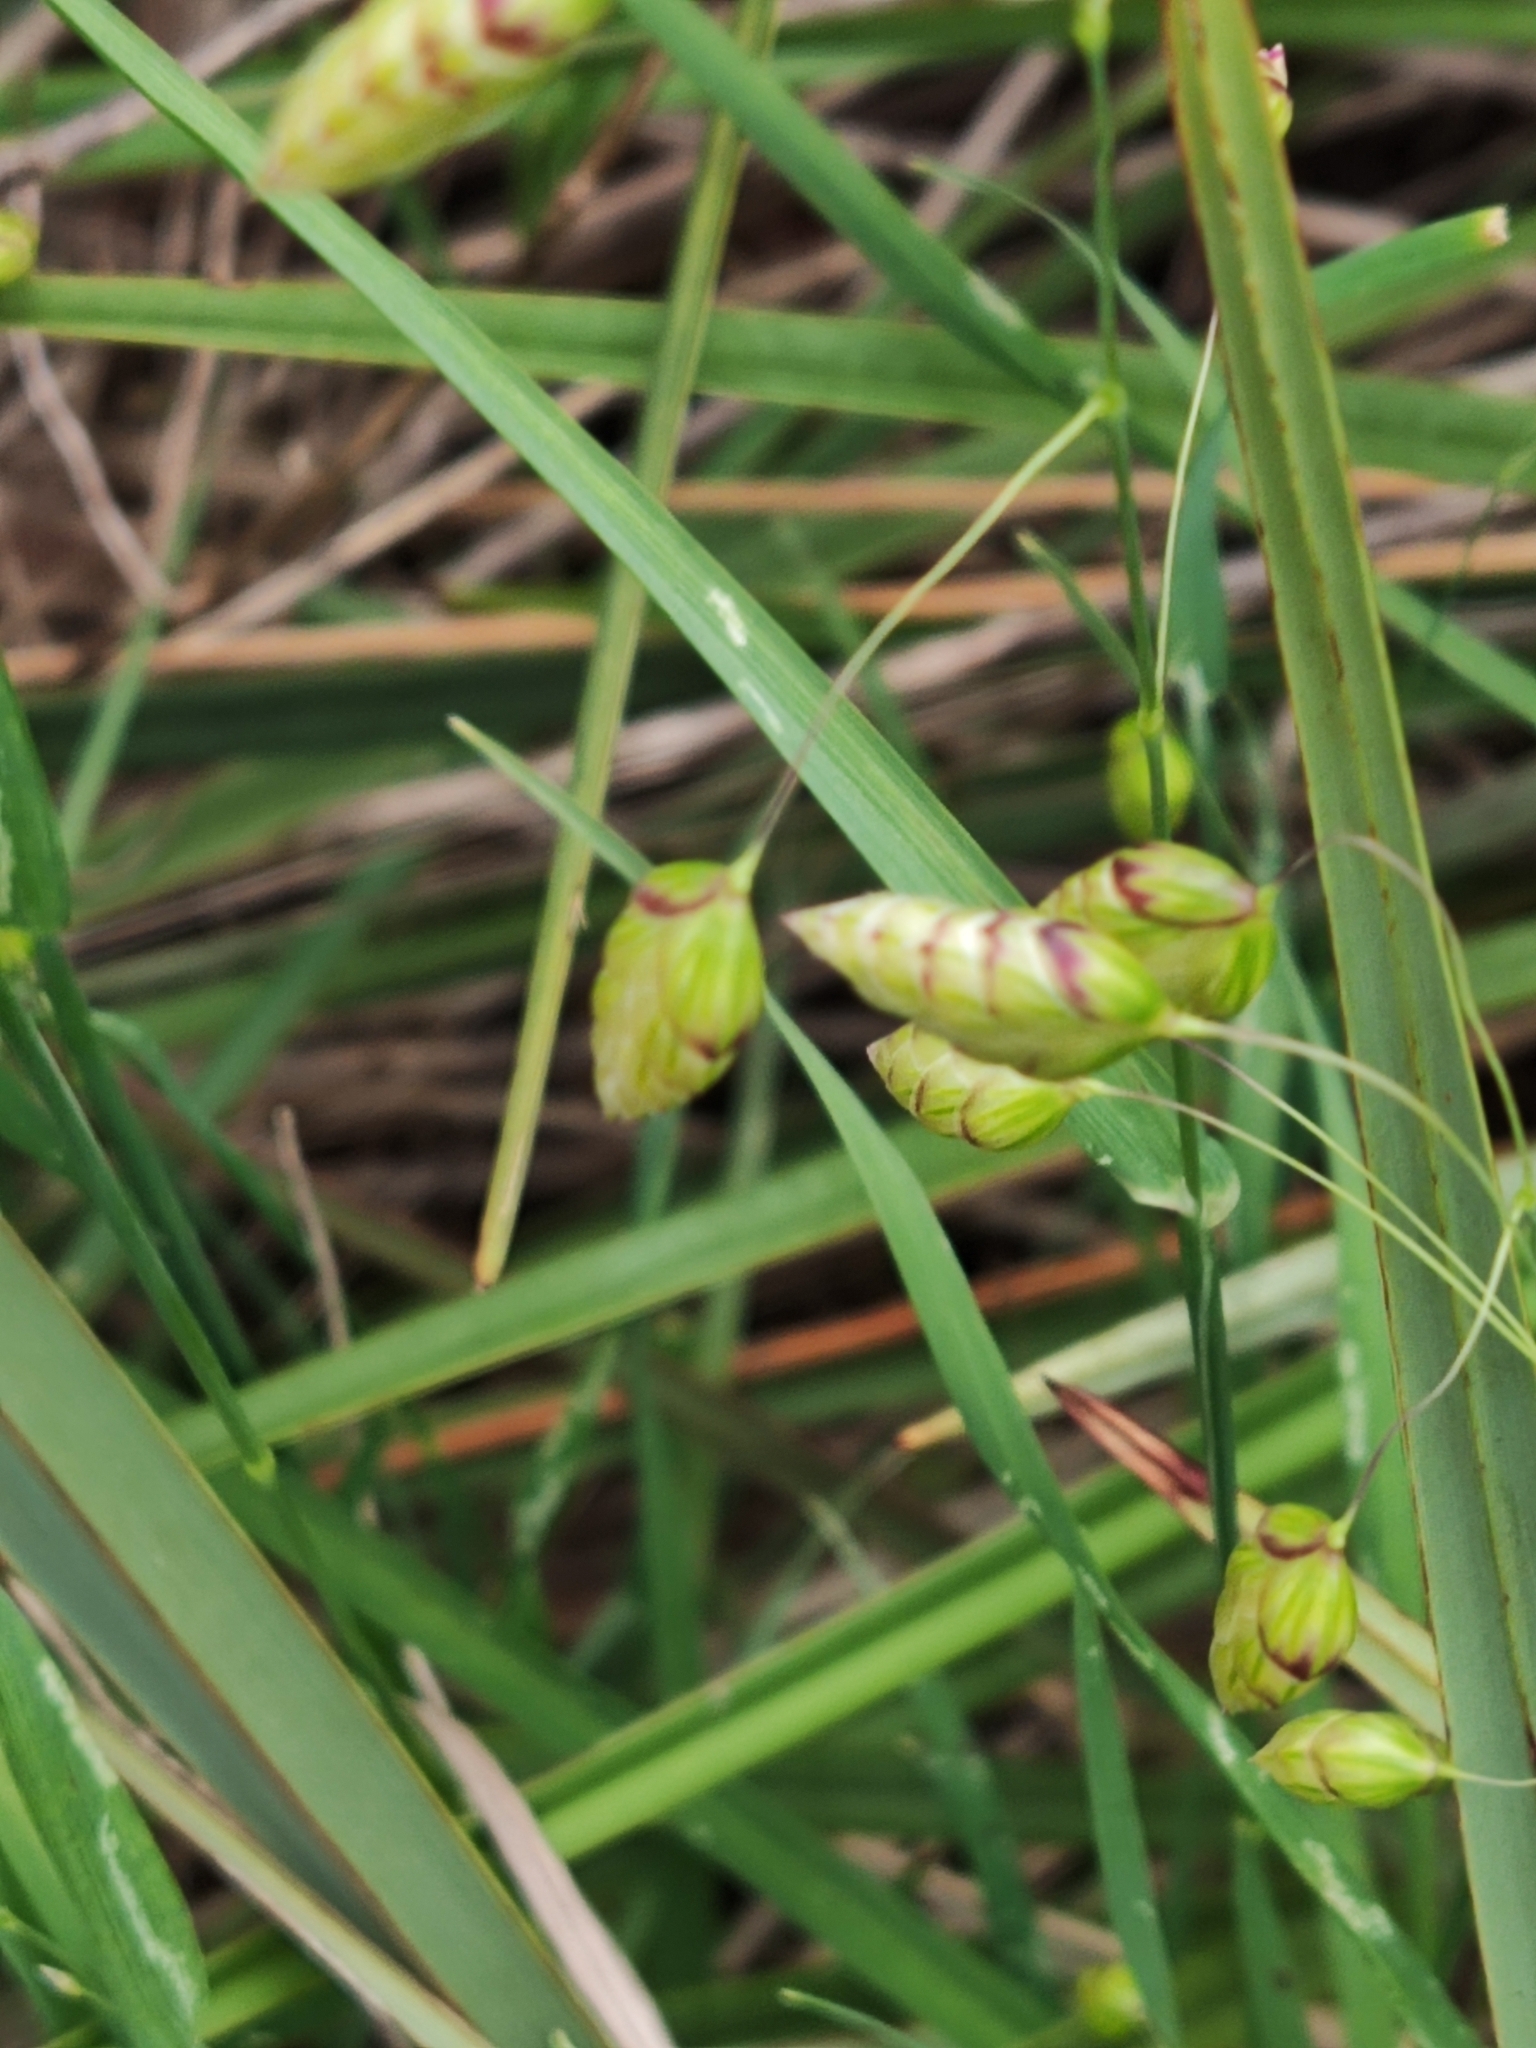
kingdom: Plantae
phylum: Tracheophyta
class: Liliopsida
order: Poales
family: Poaceae
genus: Briza
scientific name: Briza maxima
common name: Big quakinggrass
